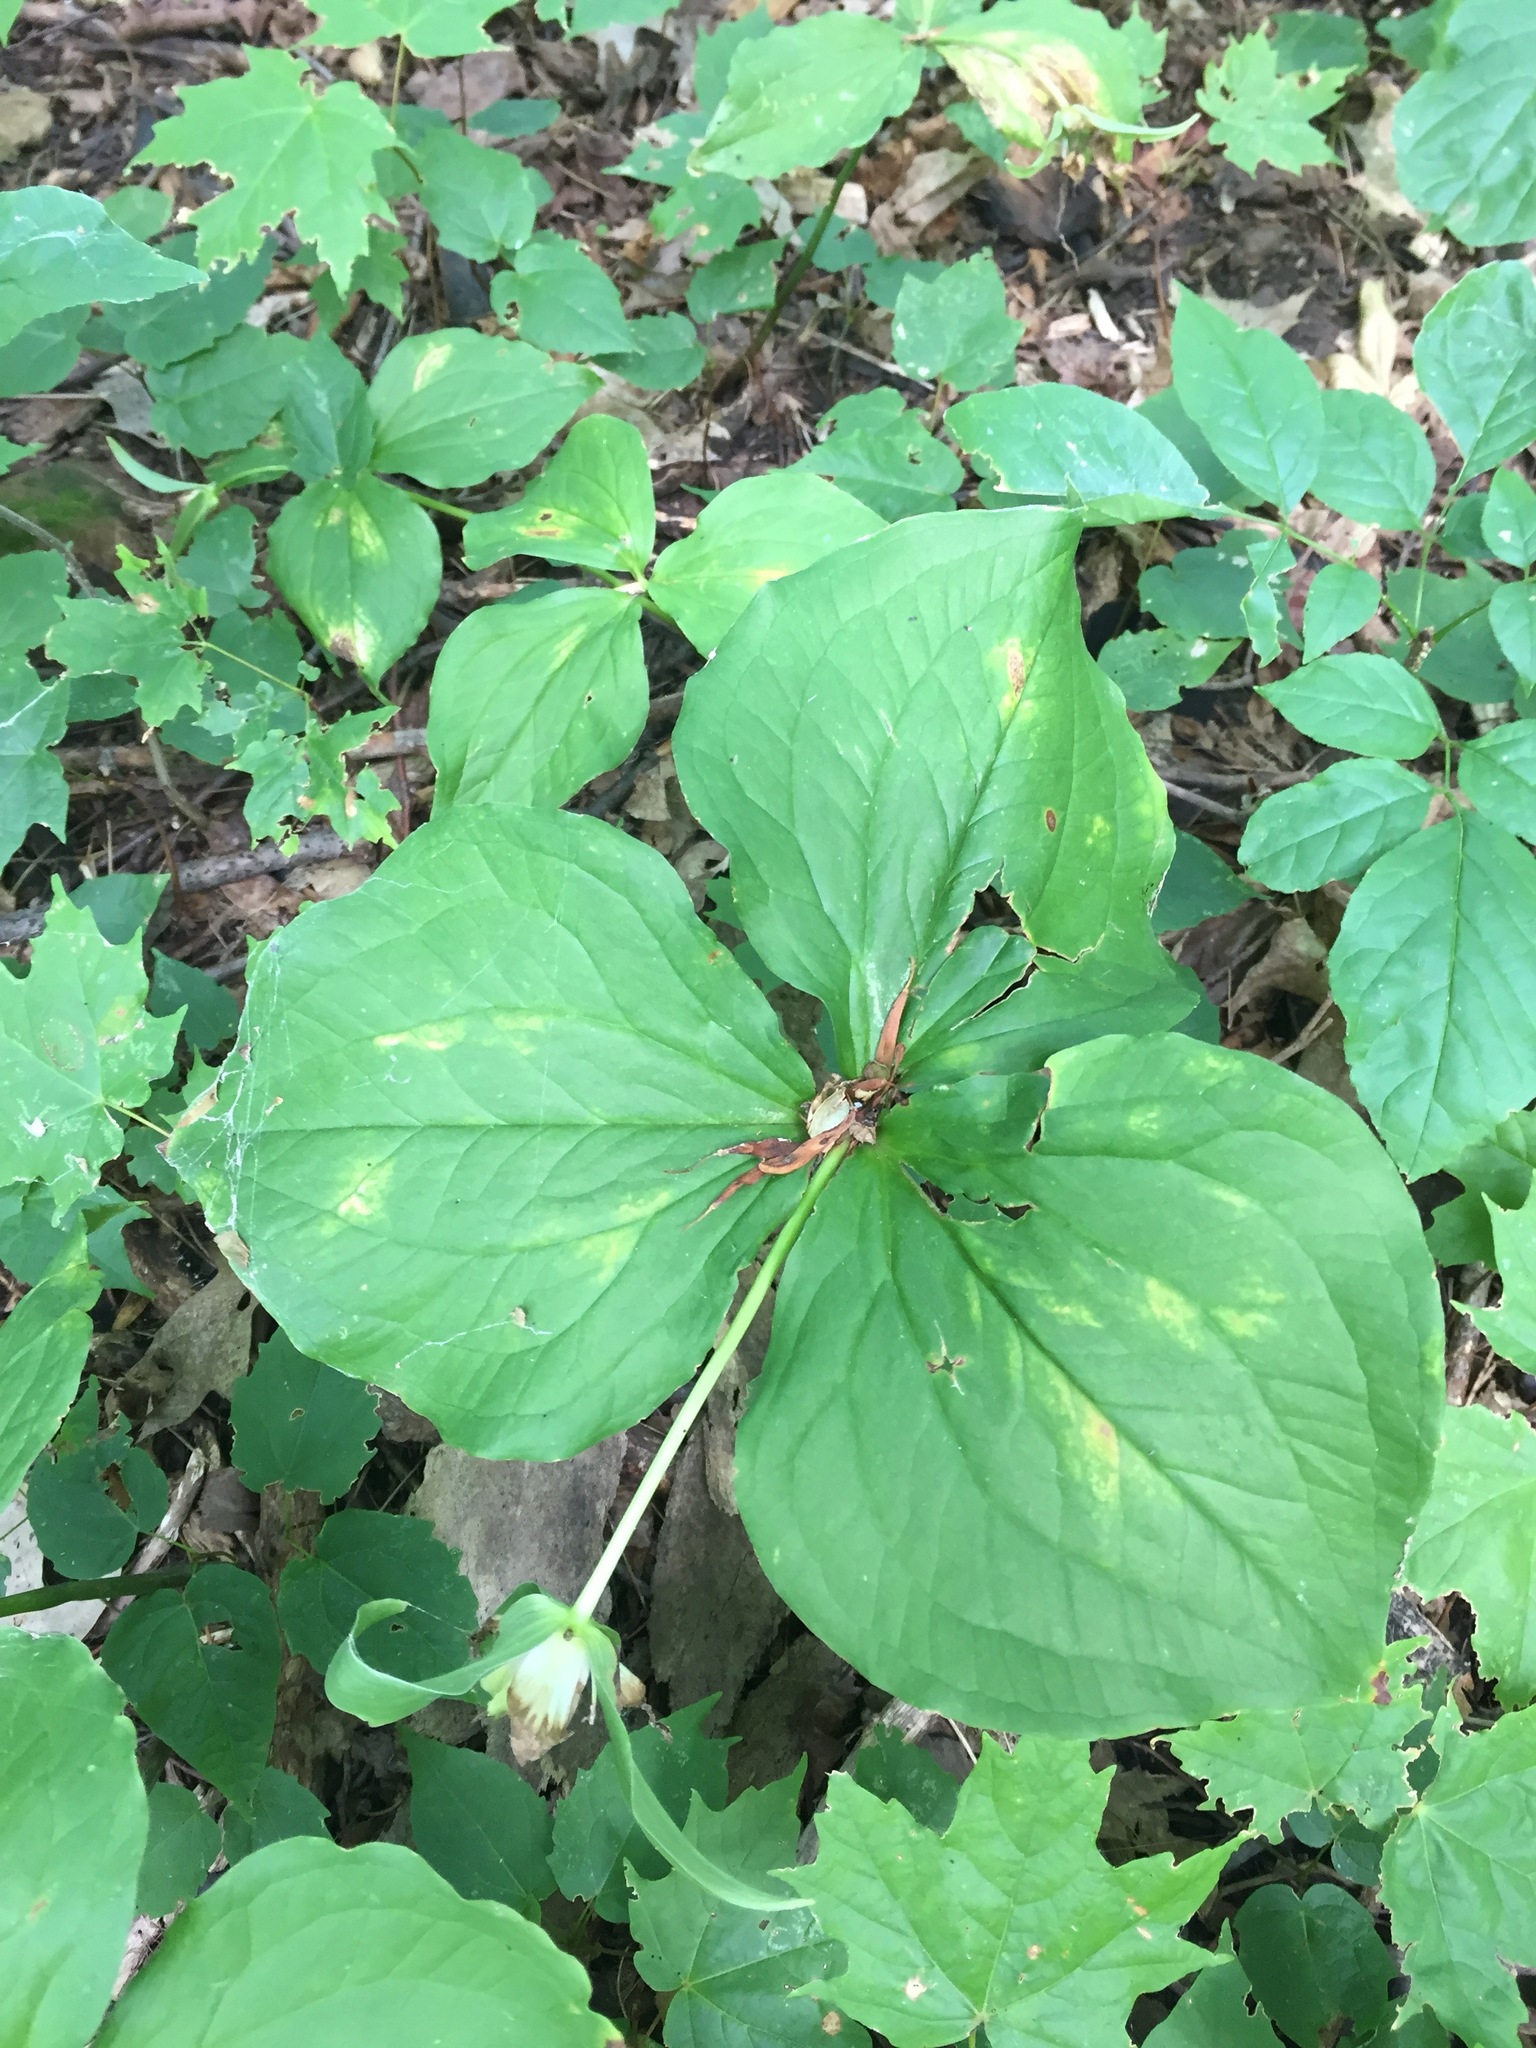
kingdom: Plantae
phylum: Tracheophyta
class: Liliopsida
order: Liliales
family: Melanthiaceae
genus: Trillium
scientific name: Trillium grandiflorum
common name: Great white trillium
